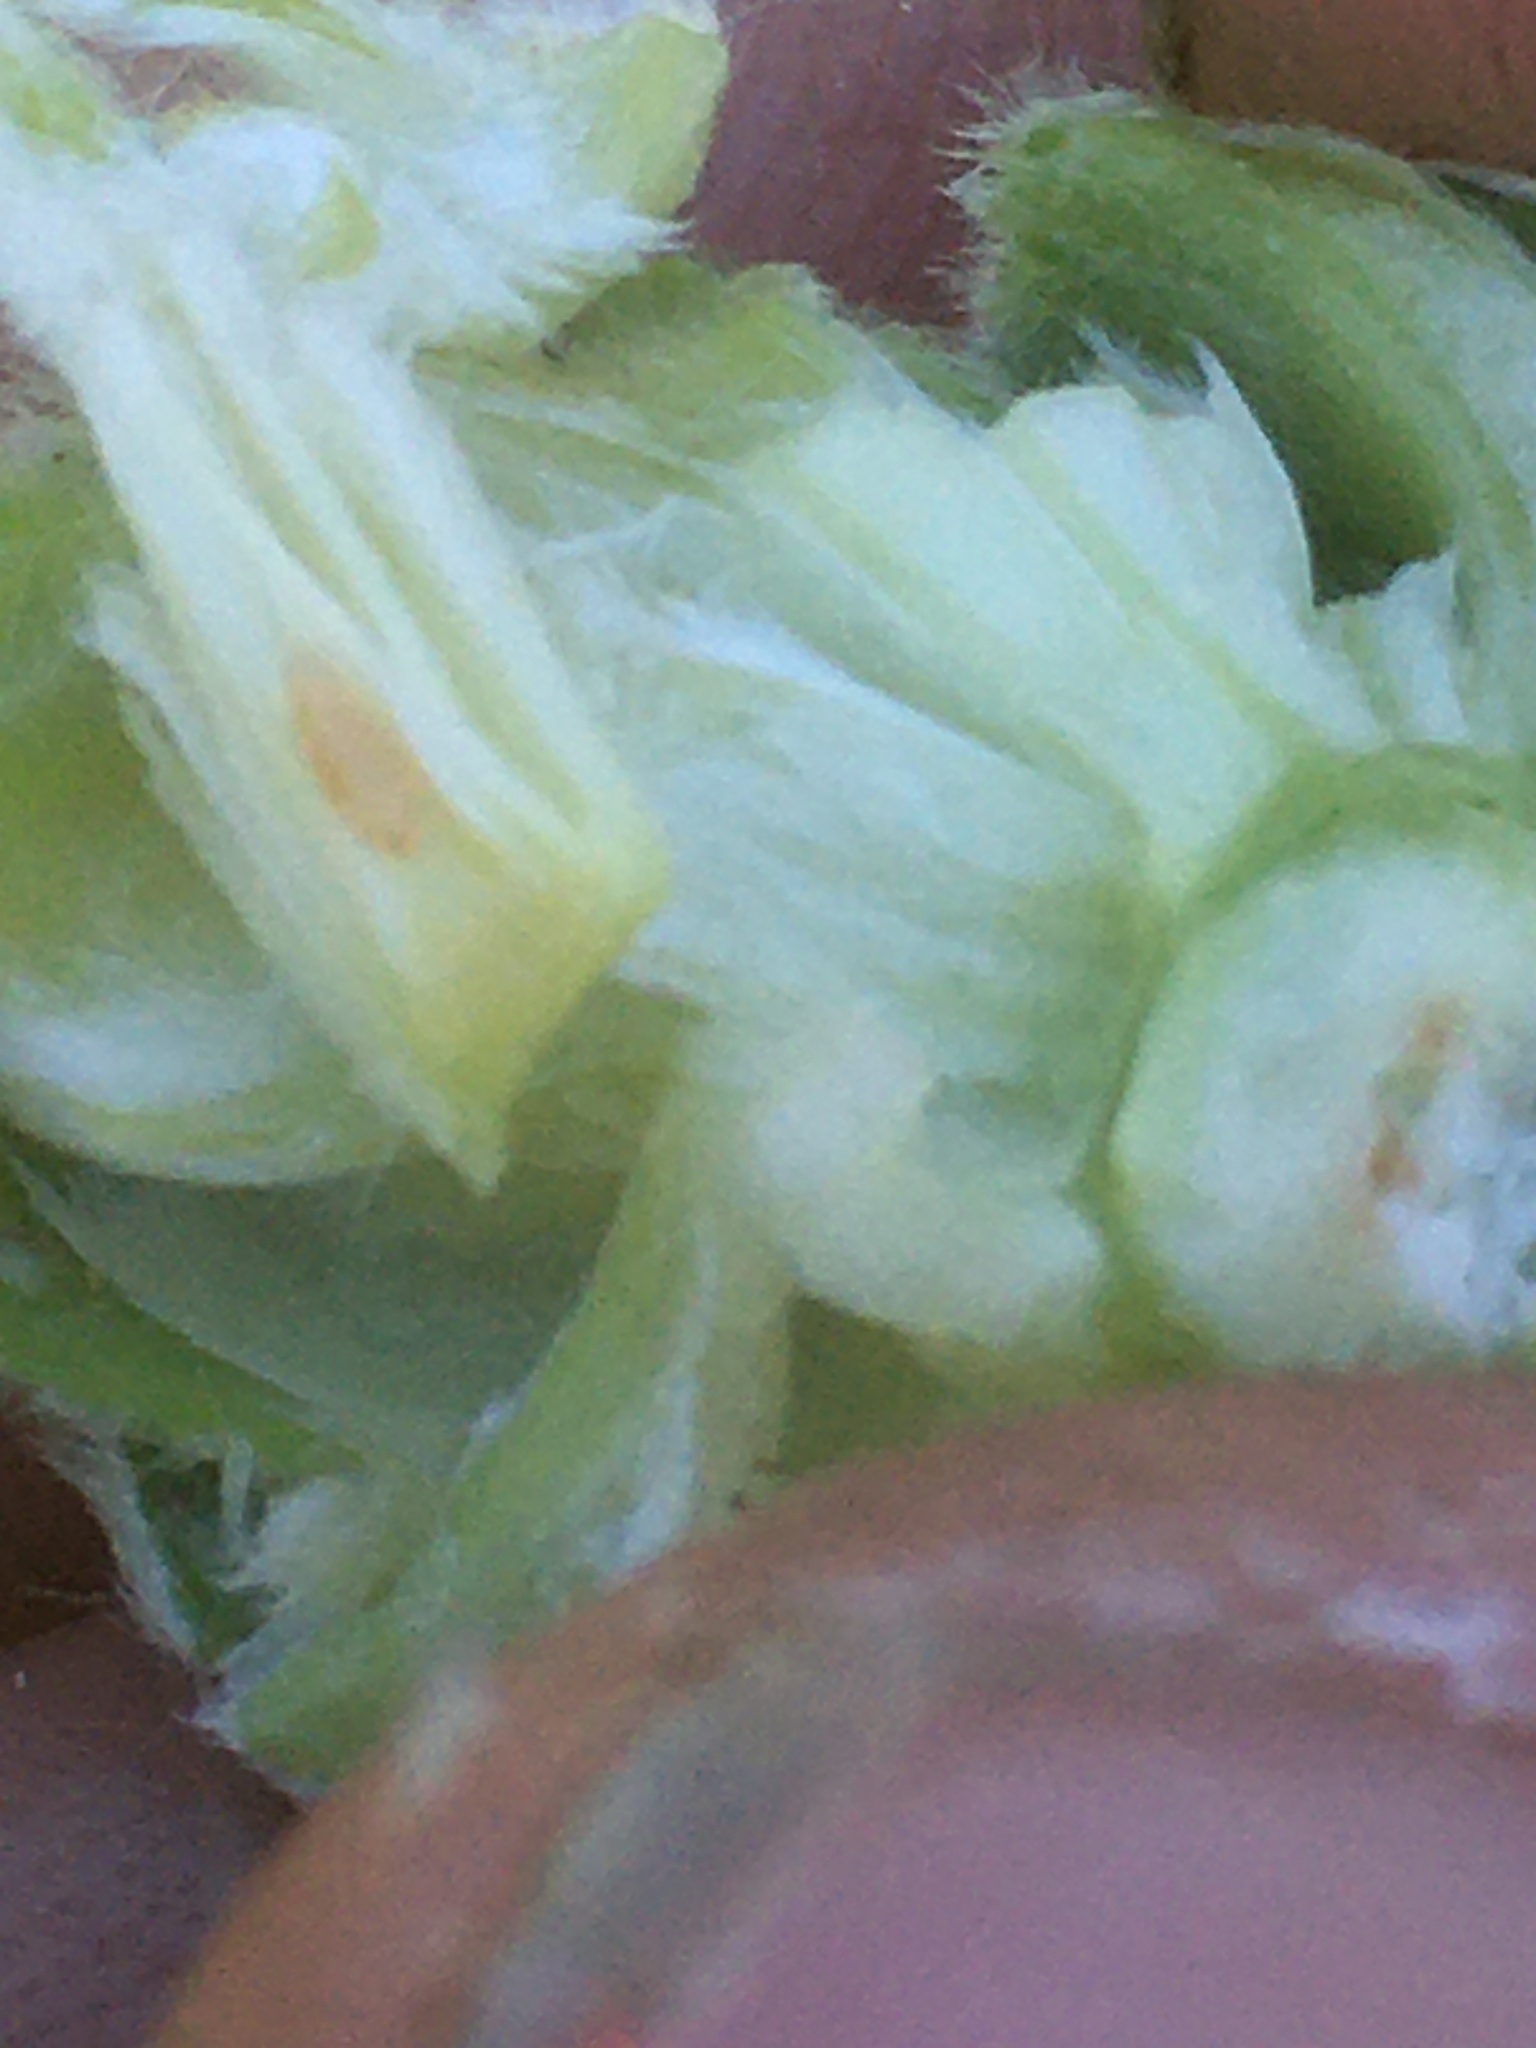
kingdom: Animalia
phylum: Arthropoda
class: Insecta
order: Diptera
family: Cecidomyiidae
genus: Rabdophaga
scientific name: Rabdophaga strobiloides
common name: Willow pinecone gall midge
